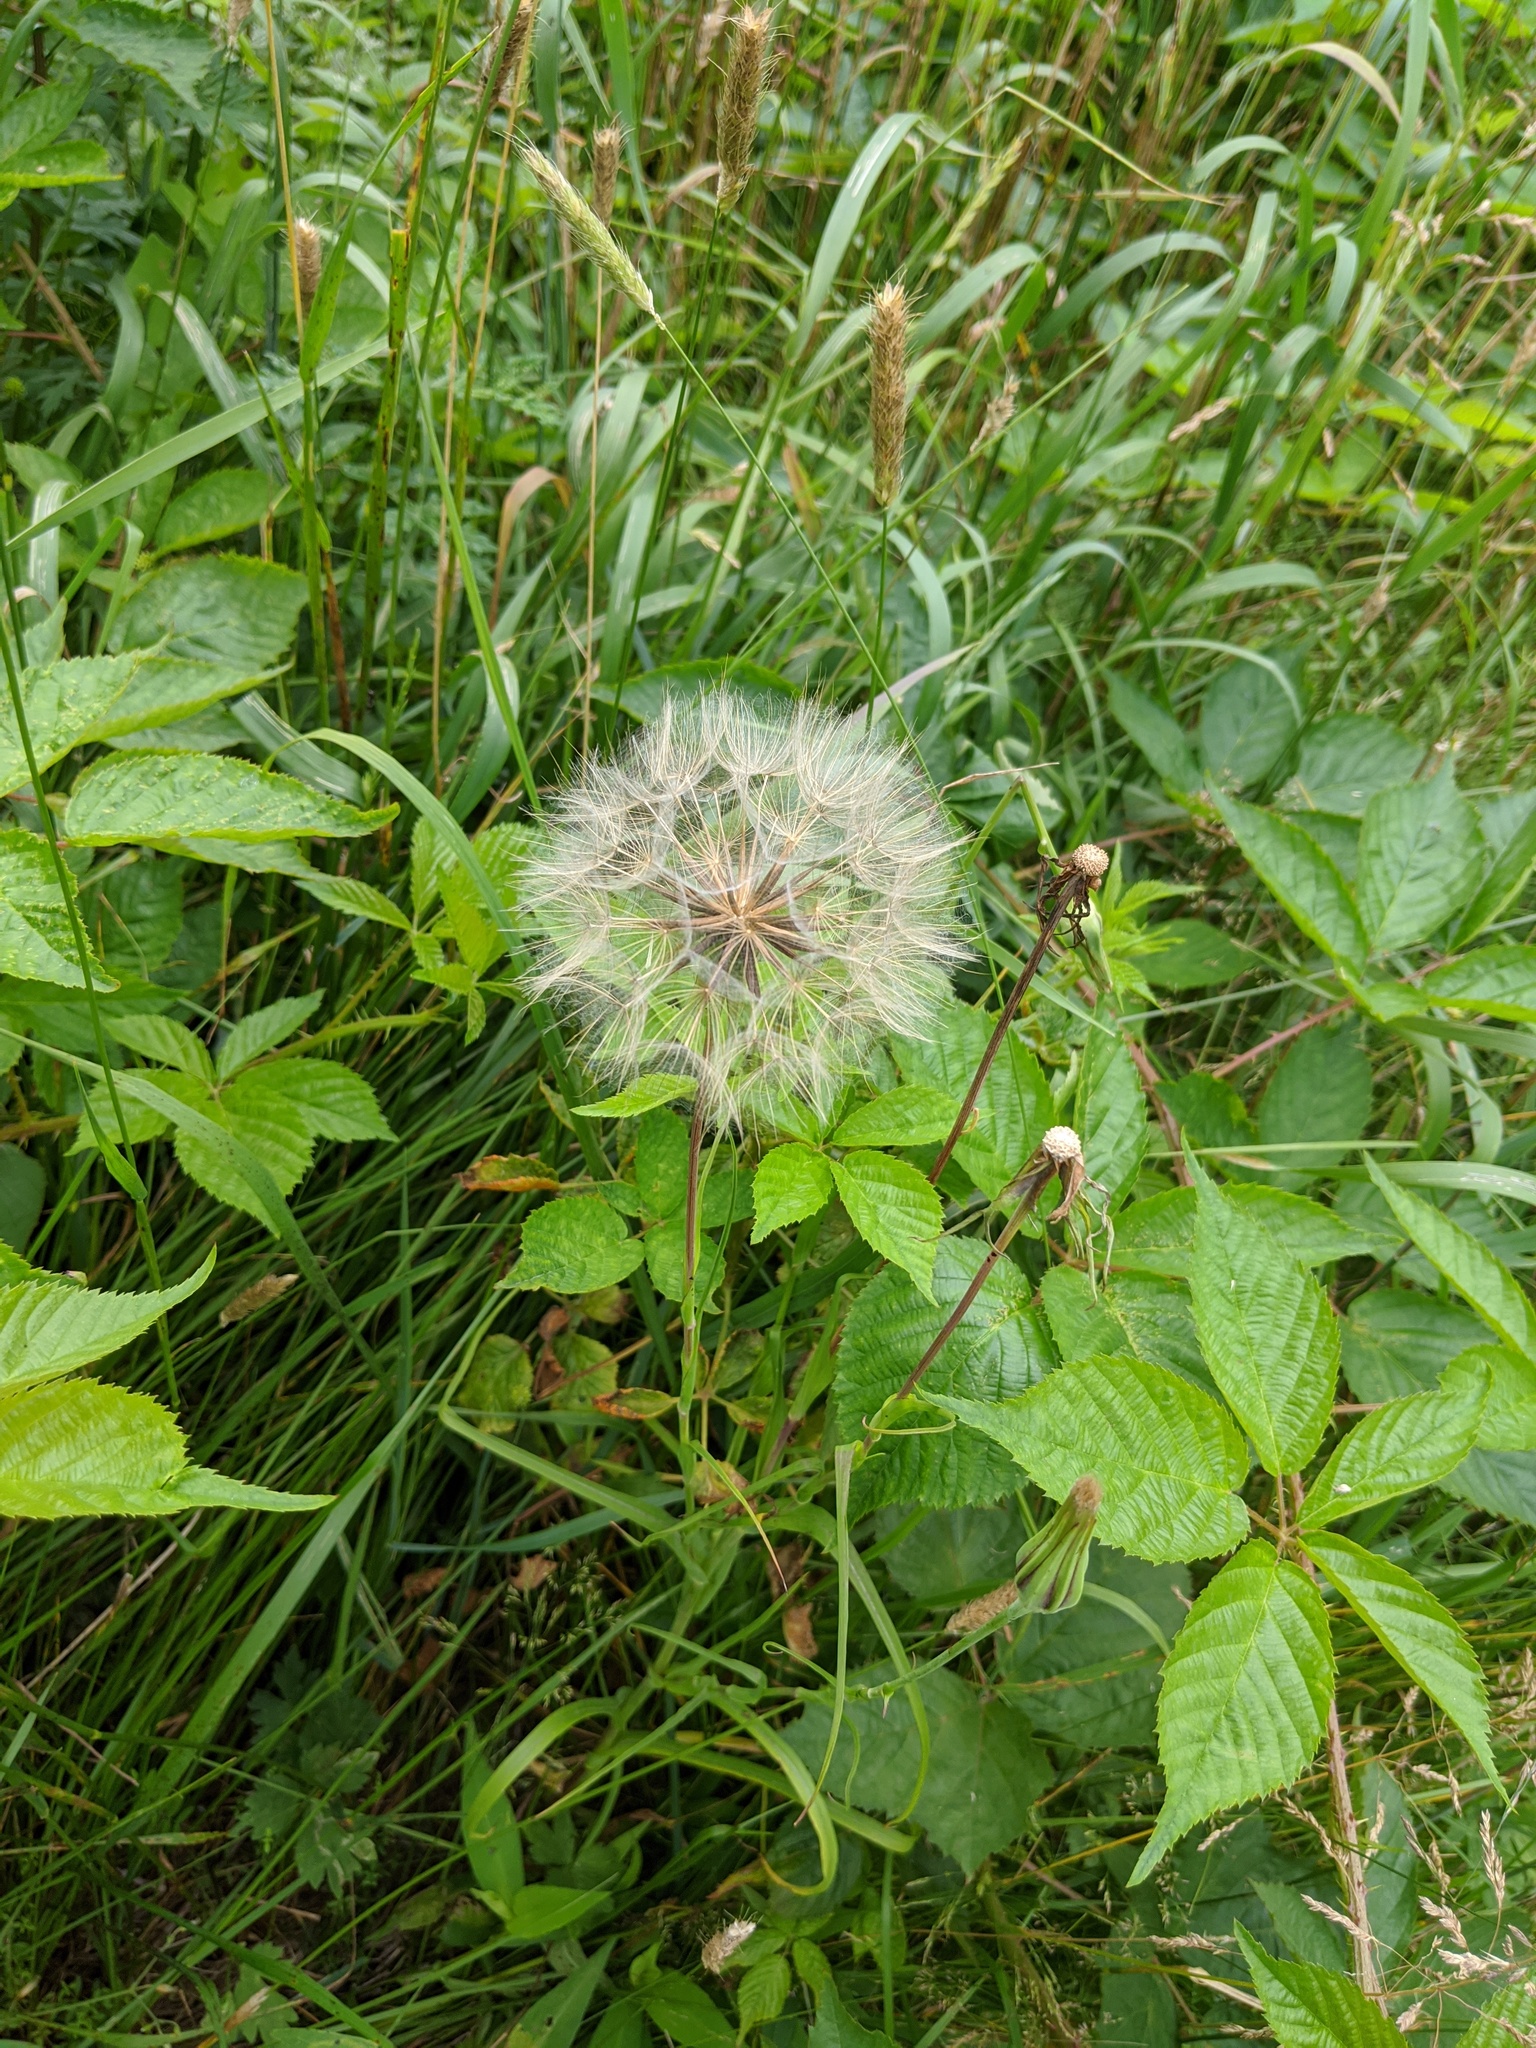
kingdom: Plantae
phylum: Tracheophyta
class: Magnoliopsida
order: Asterales
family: Asteraceae
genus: Tragopogon
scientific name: Tragopogon pratensis
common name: Goat's-beard
